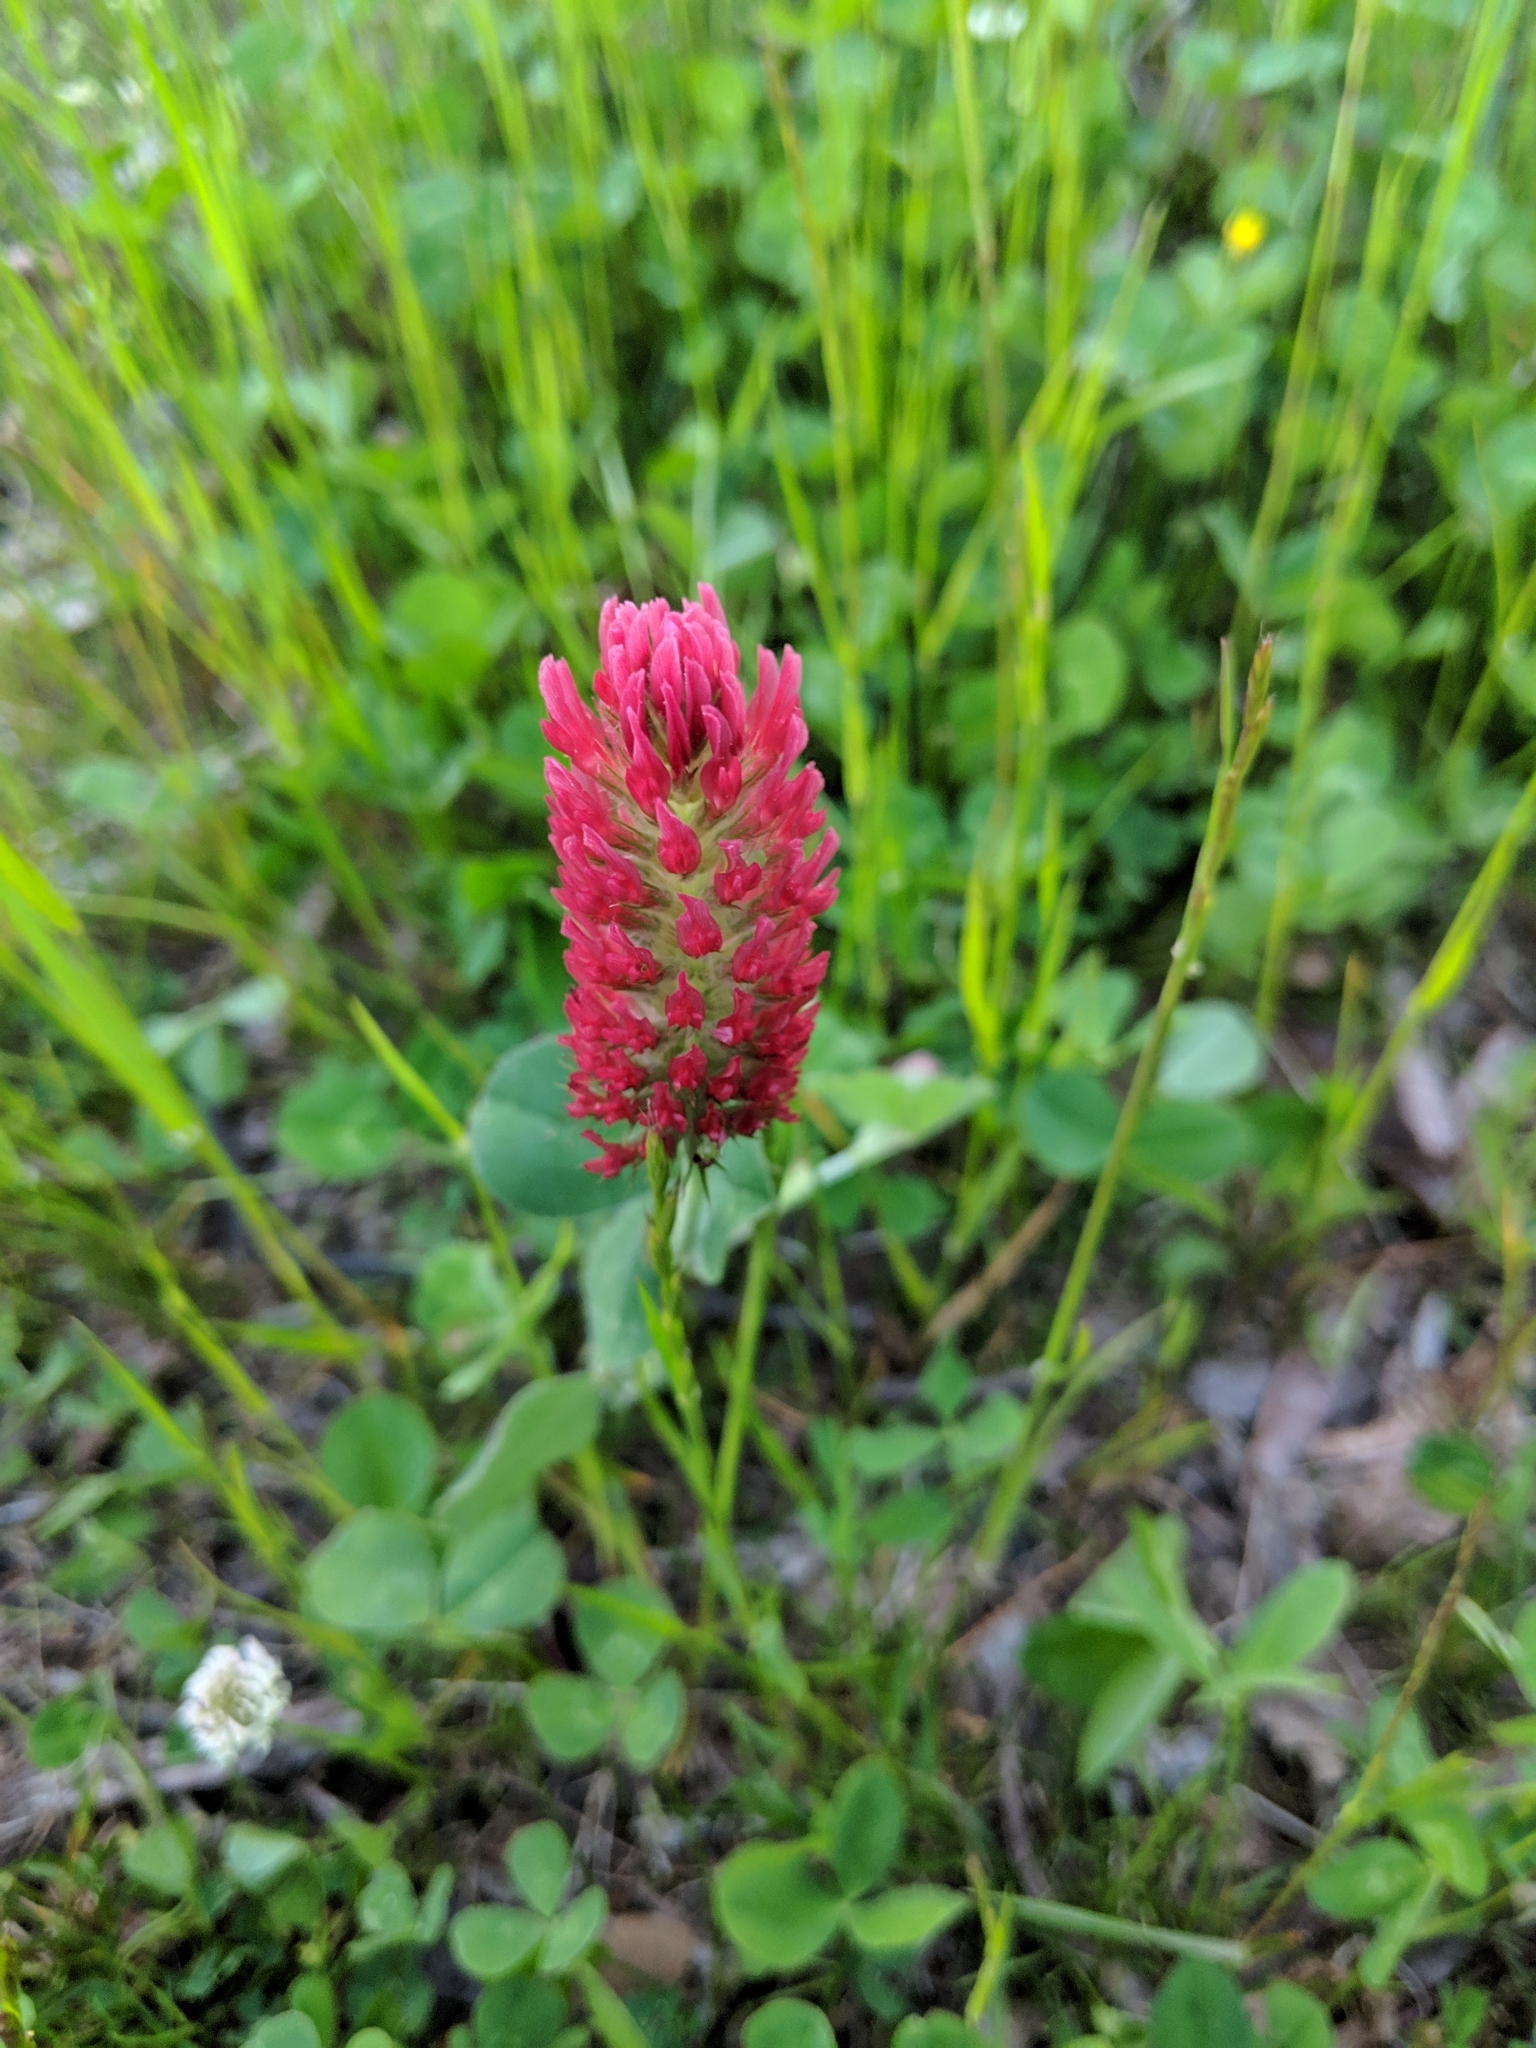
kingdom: Plantae
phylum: Tracheophyta
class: Magnoliopsida
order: Fabales
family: Fabaceae
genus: Trifolium
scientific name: Trifolium incarnatum
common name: Crimson clover
